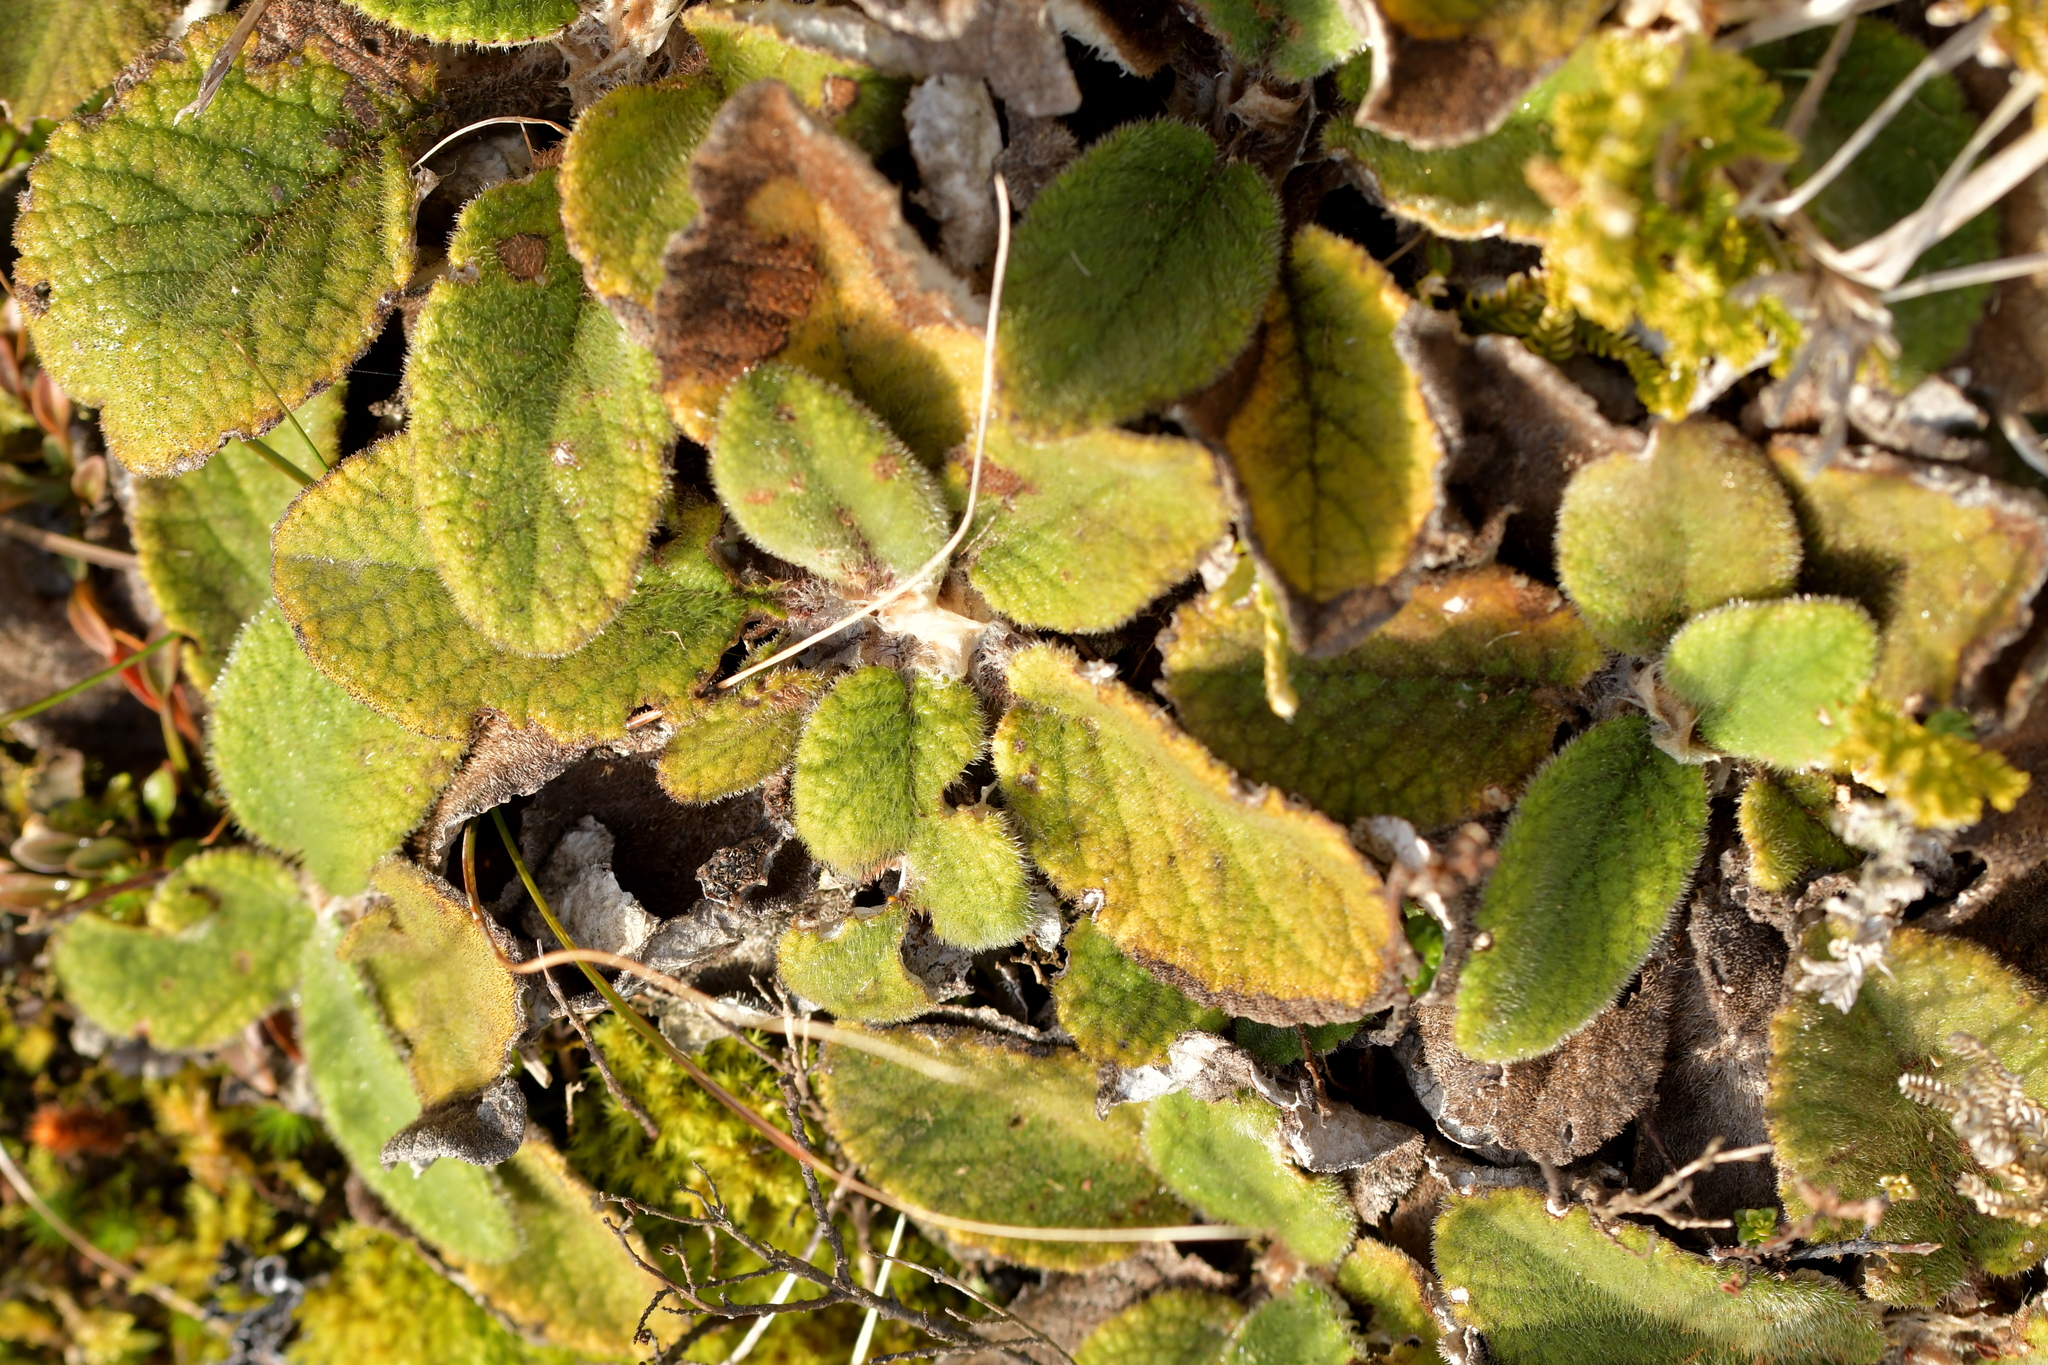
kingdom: Plantae
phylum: Tracheophyta
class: Magnoliopsida
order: Asterales
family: Asteraceae
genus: Brachyglottis
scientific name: Brachyglottis lagopus
